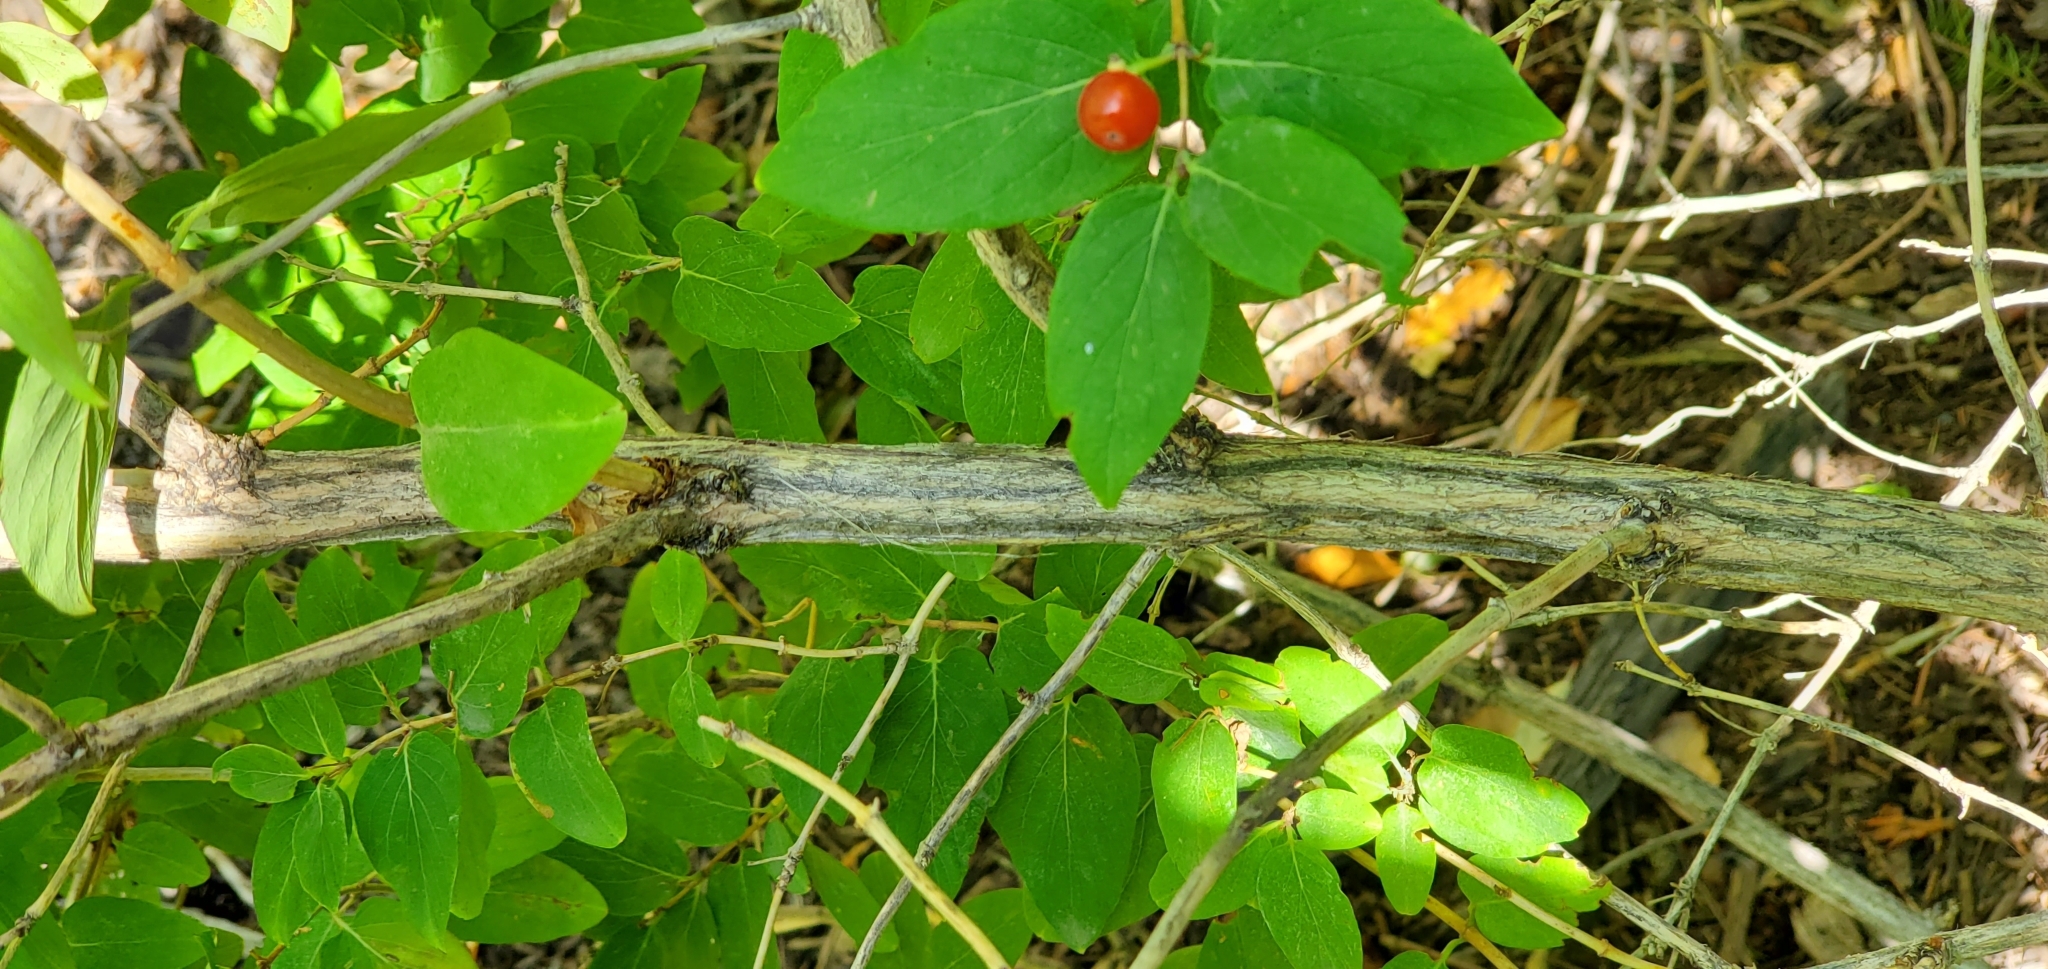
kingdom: Plantae
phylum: Tracheophyta
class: Magnoliopsida
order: Dipsacales
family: Caprifoliaceae
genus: Lonicera
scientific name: Lonicera tatarica
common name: Tatarian honeysuckle
